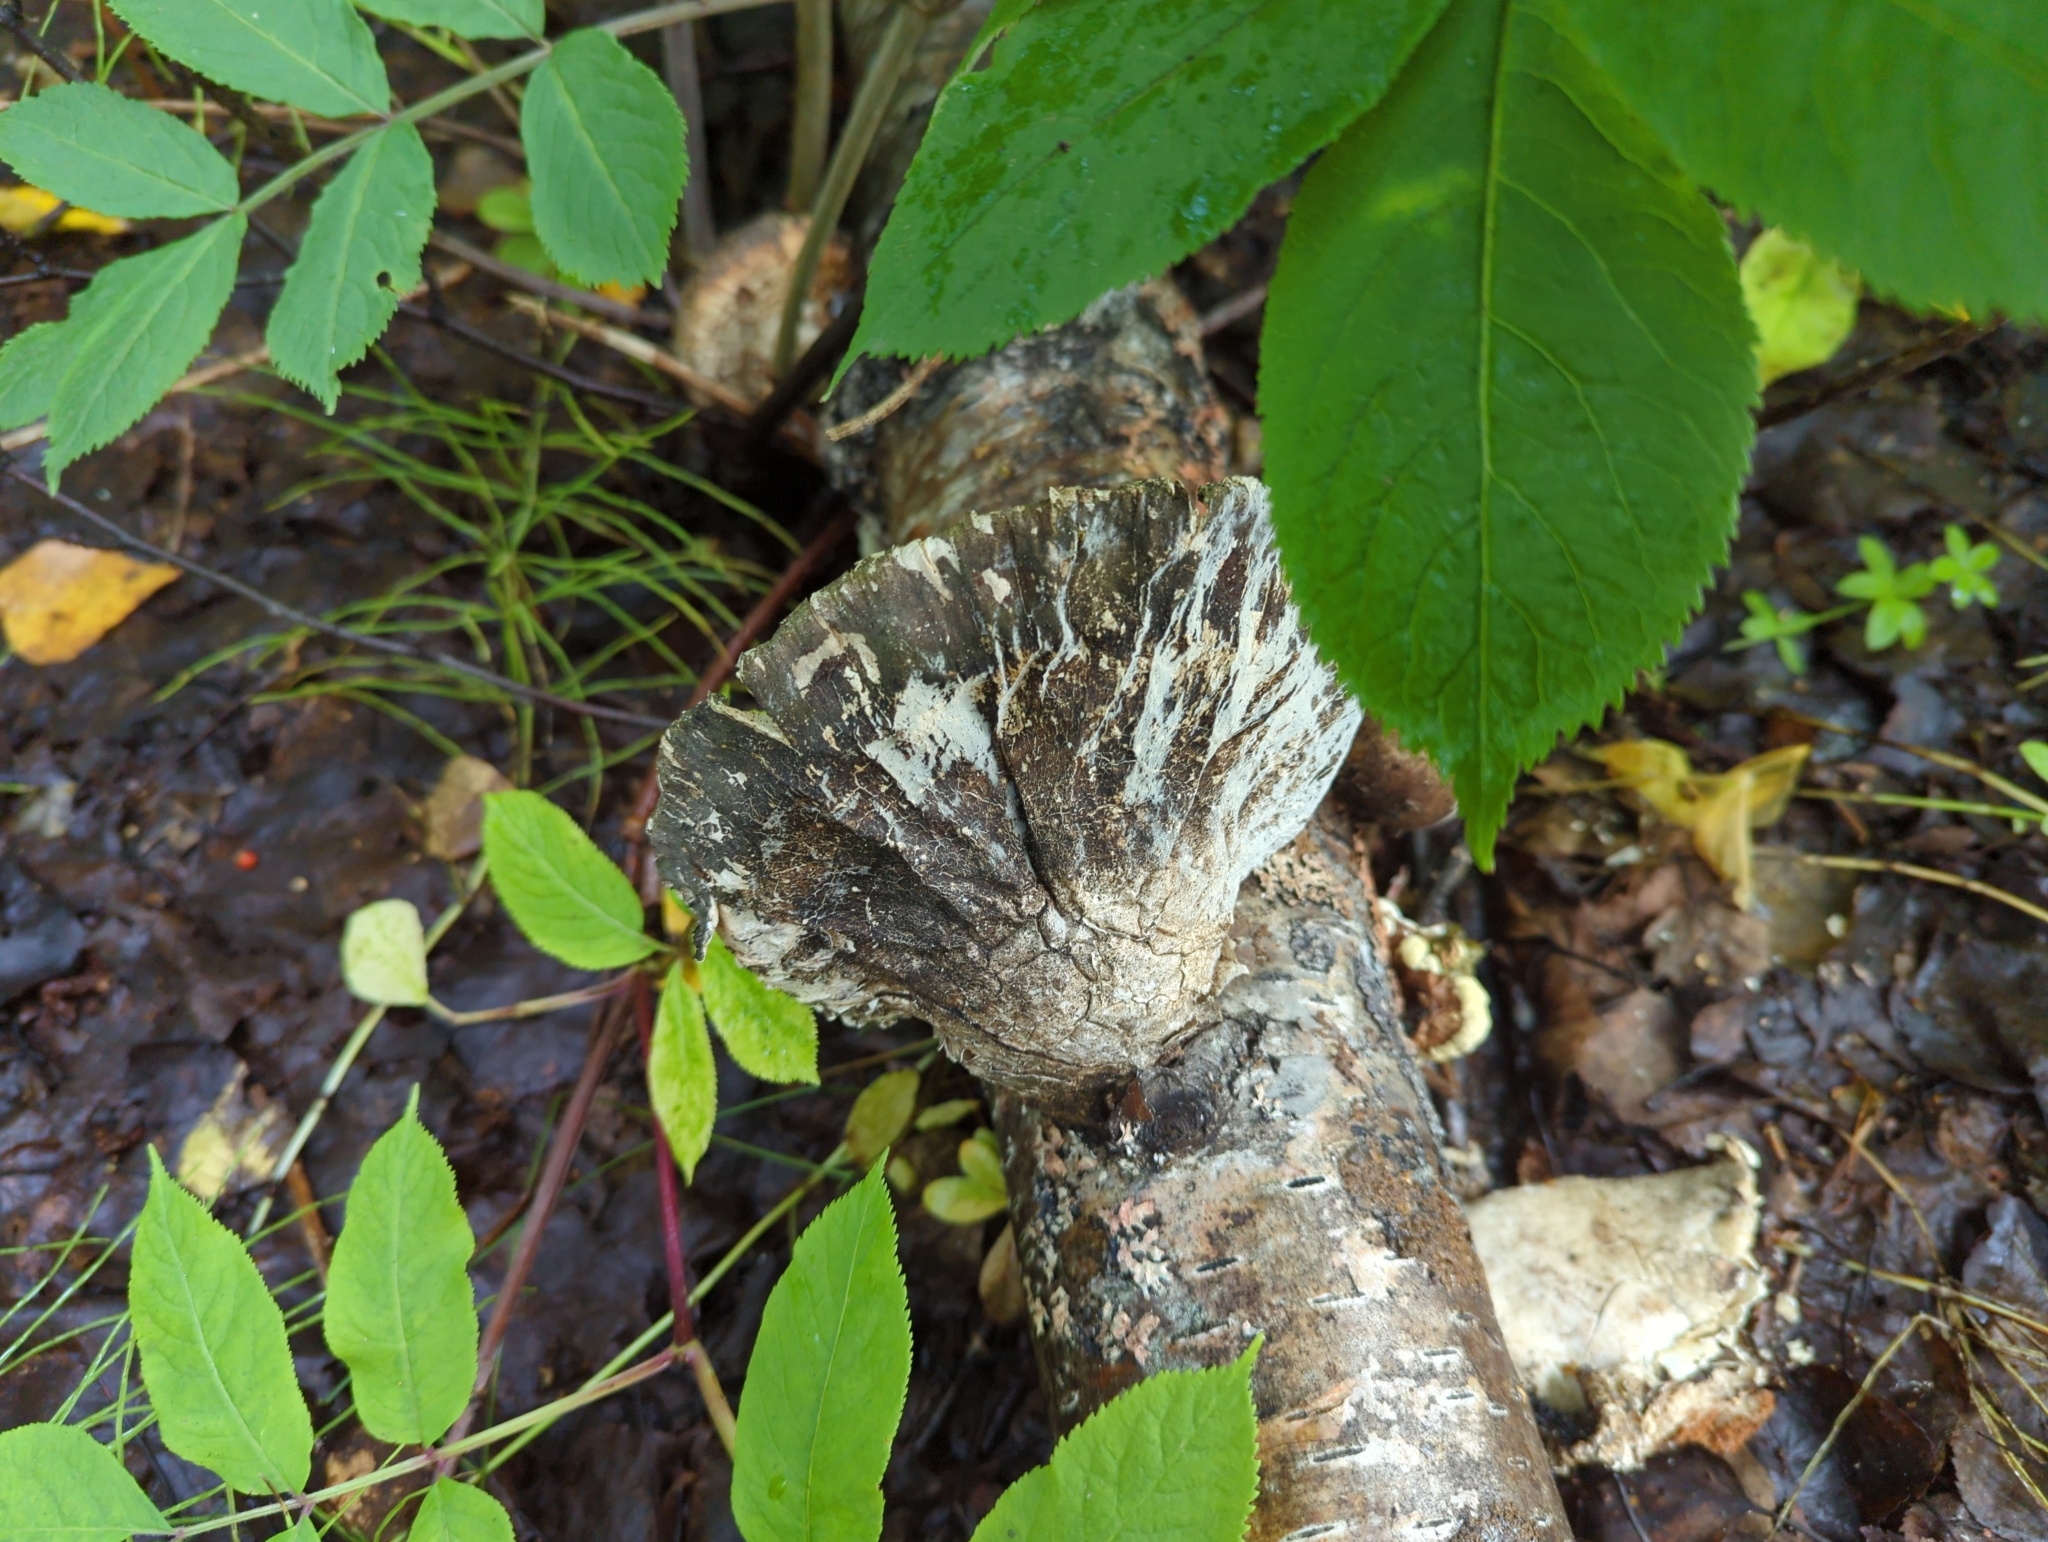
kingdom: Fungi
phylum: Basidiomycota
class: Agaricomycetes
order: Polyporales
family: Fomitopsidaceae
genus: Fomitopsis
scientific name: Fomitopsis betulina
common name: Birch polypore
